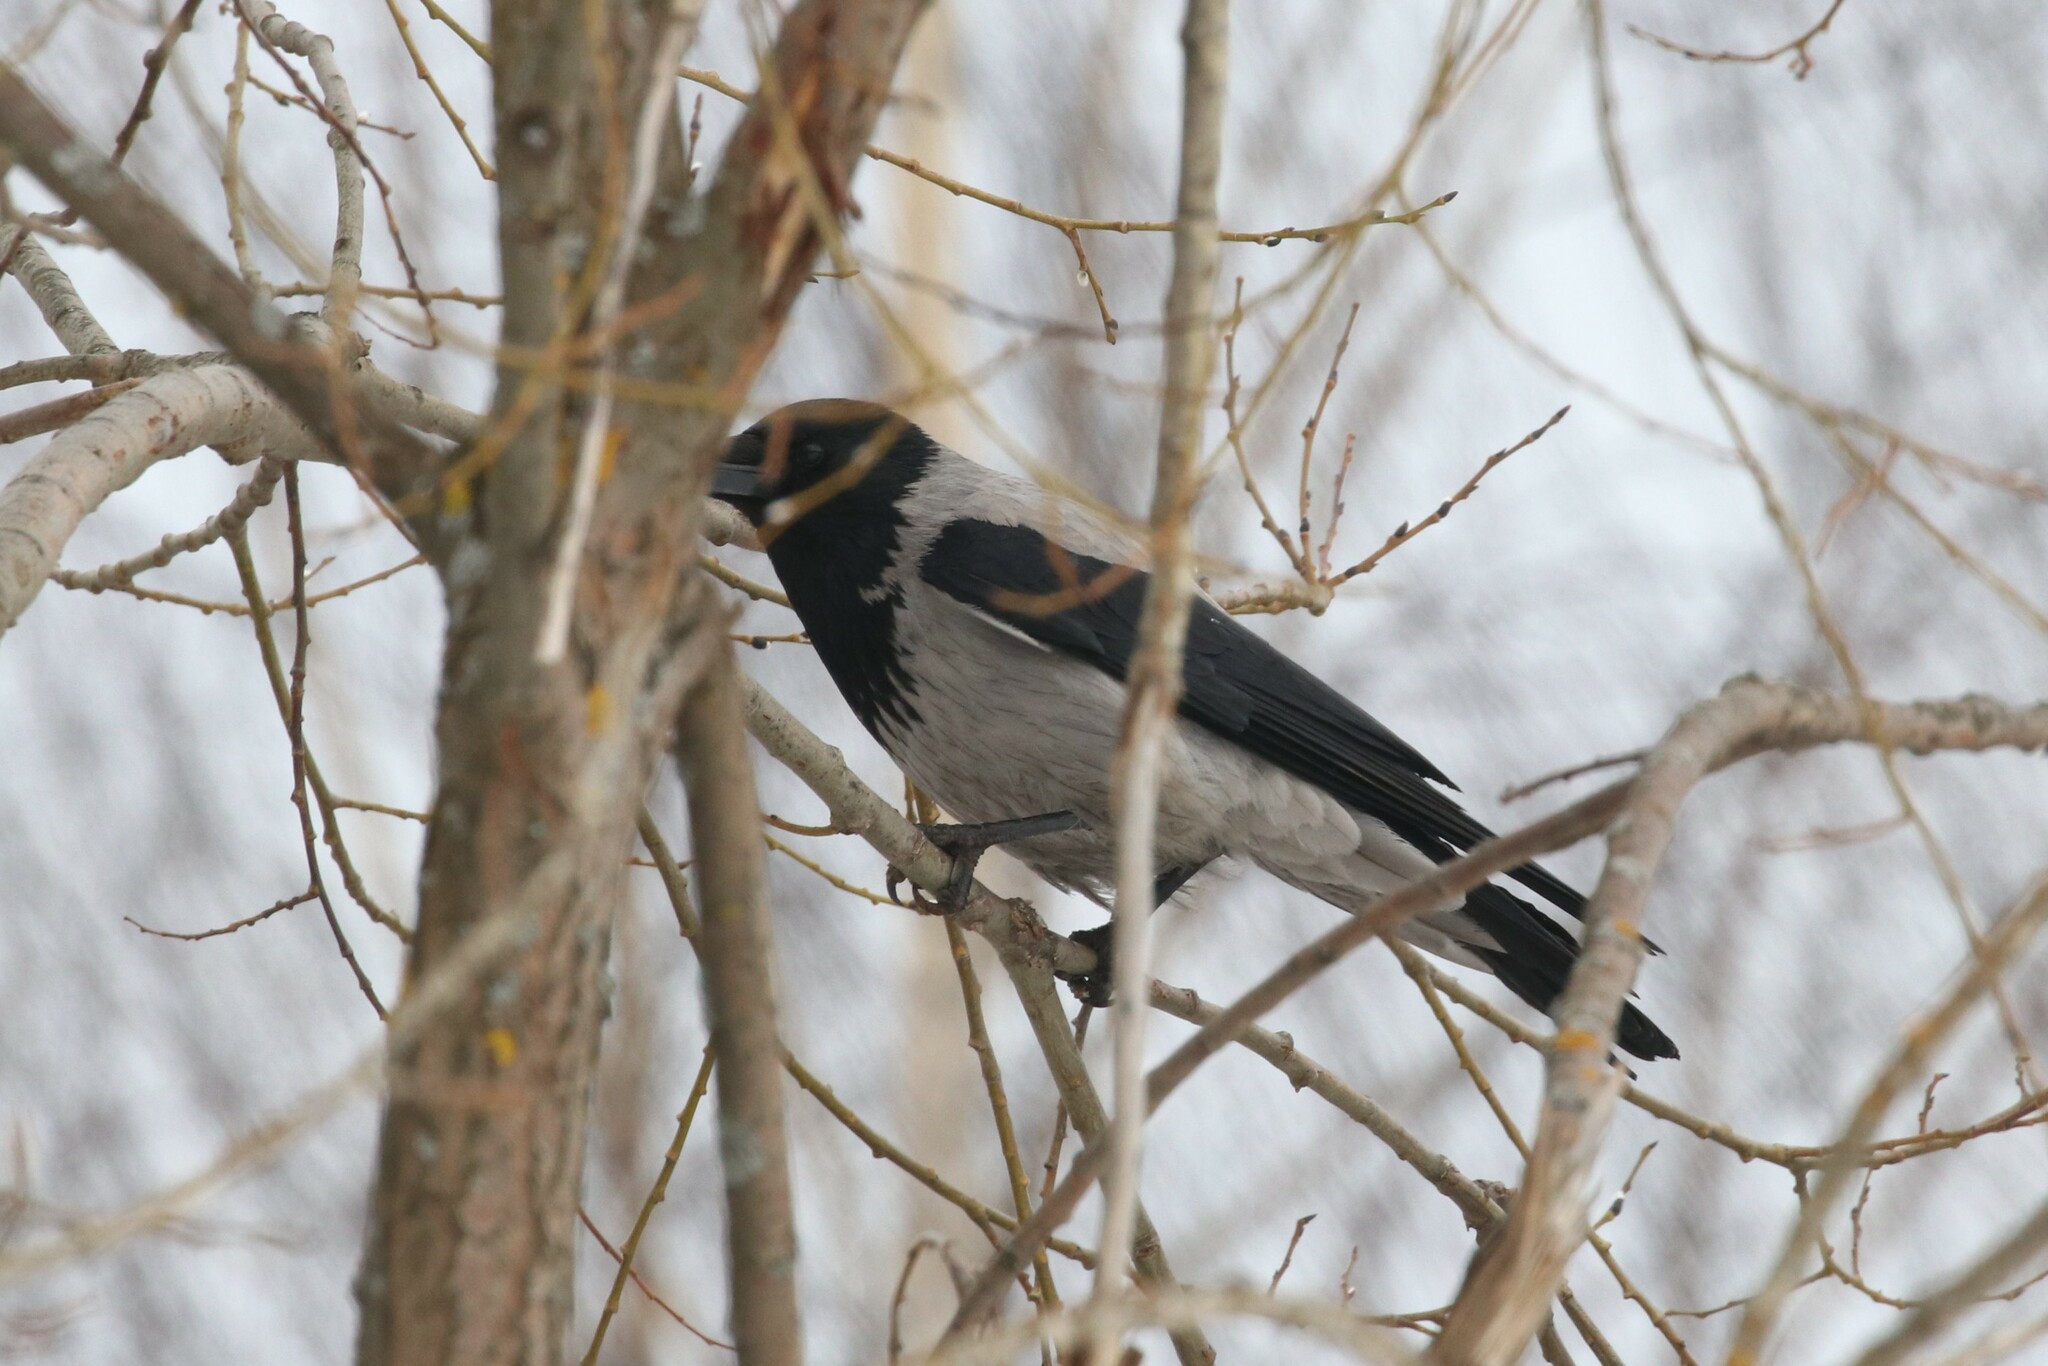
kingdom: Animalia
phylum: Chordata
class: Aves
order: Passeriformes
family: Corvidae
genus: Corvus
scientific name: Corvus cornix
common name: Hooded crow
